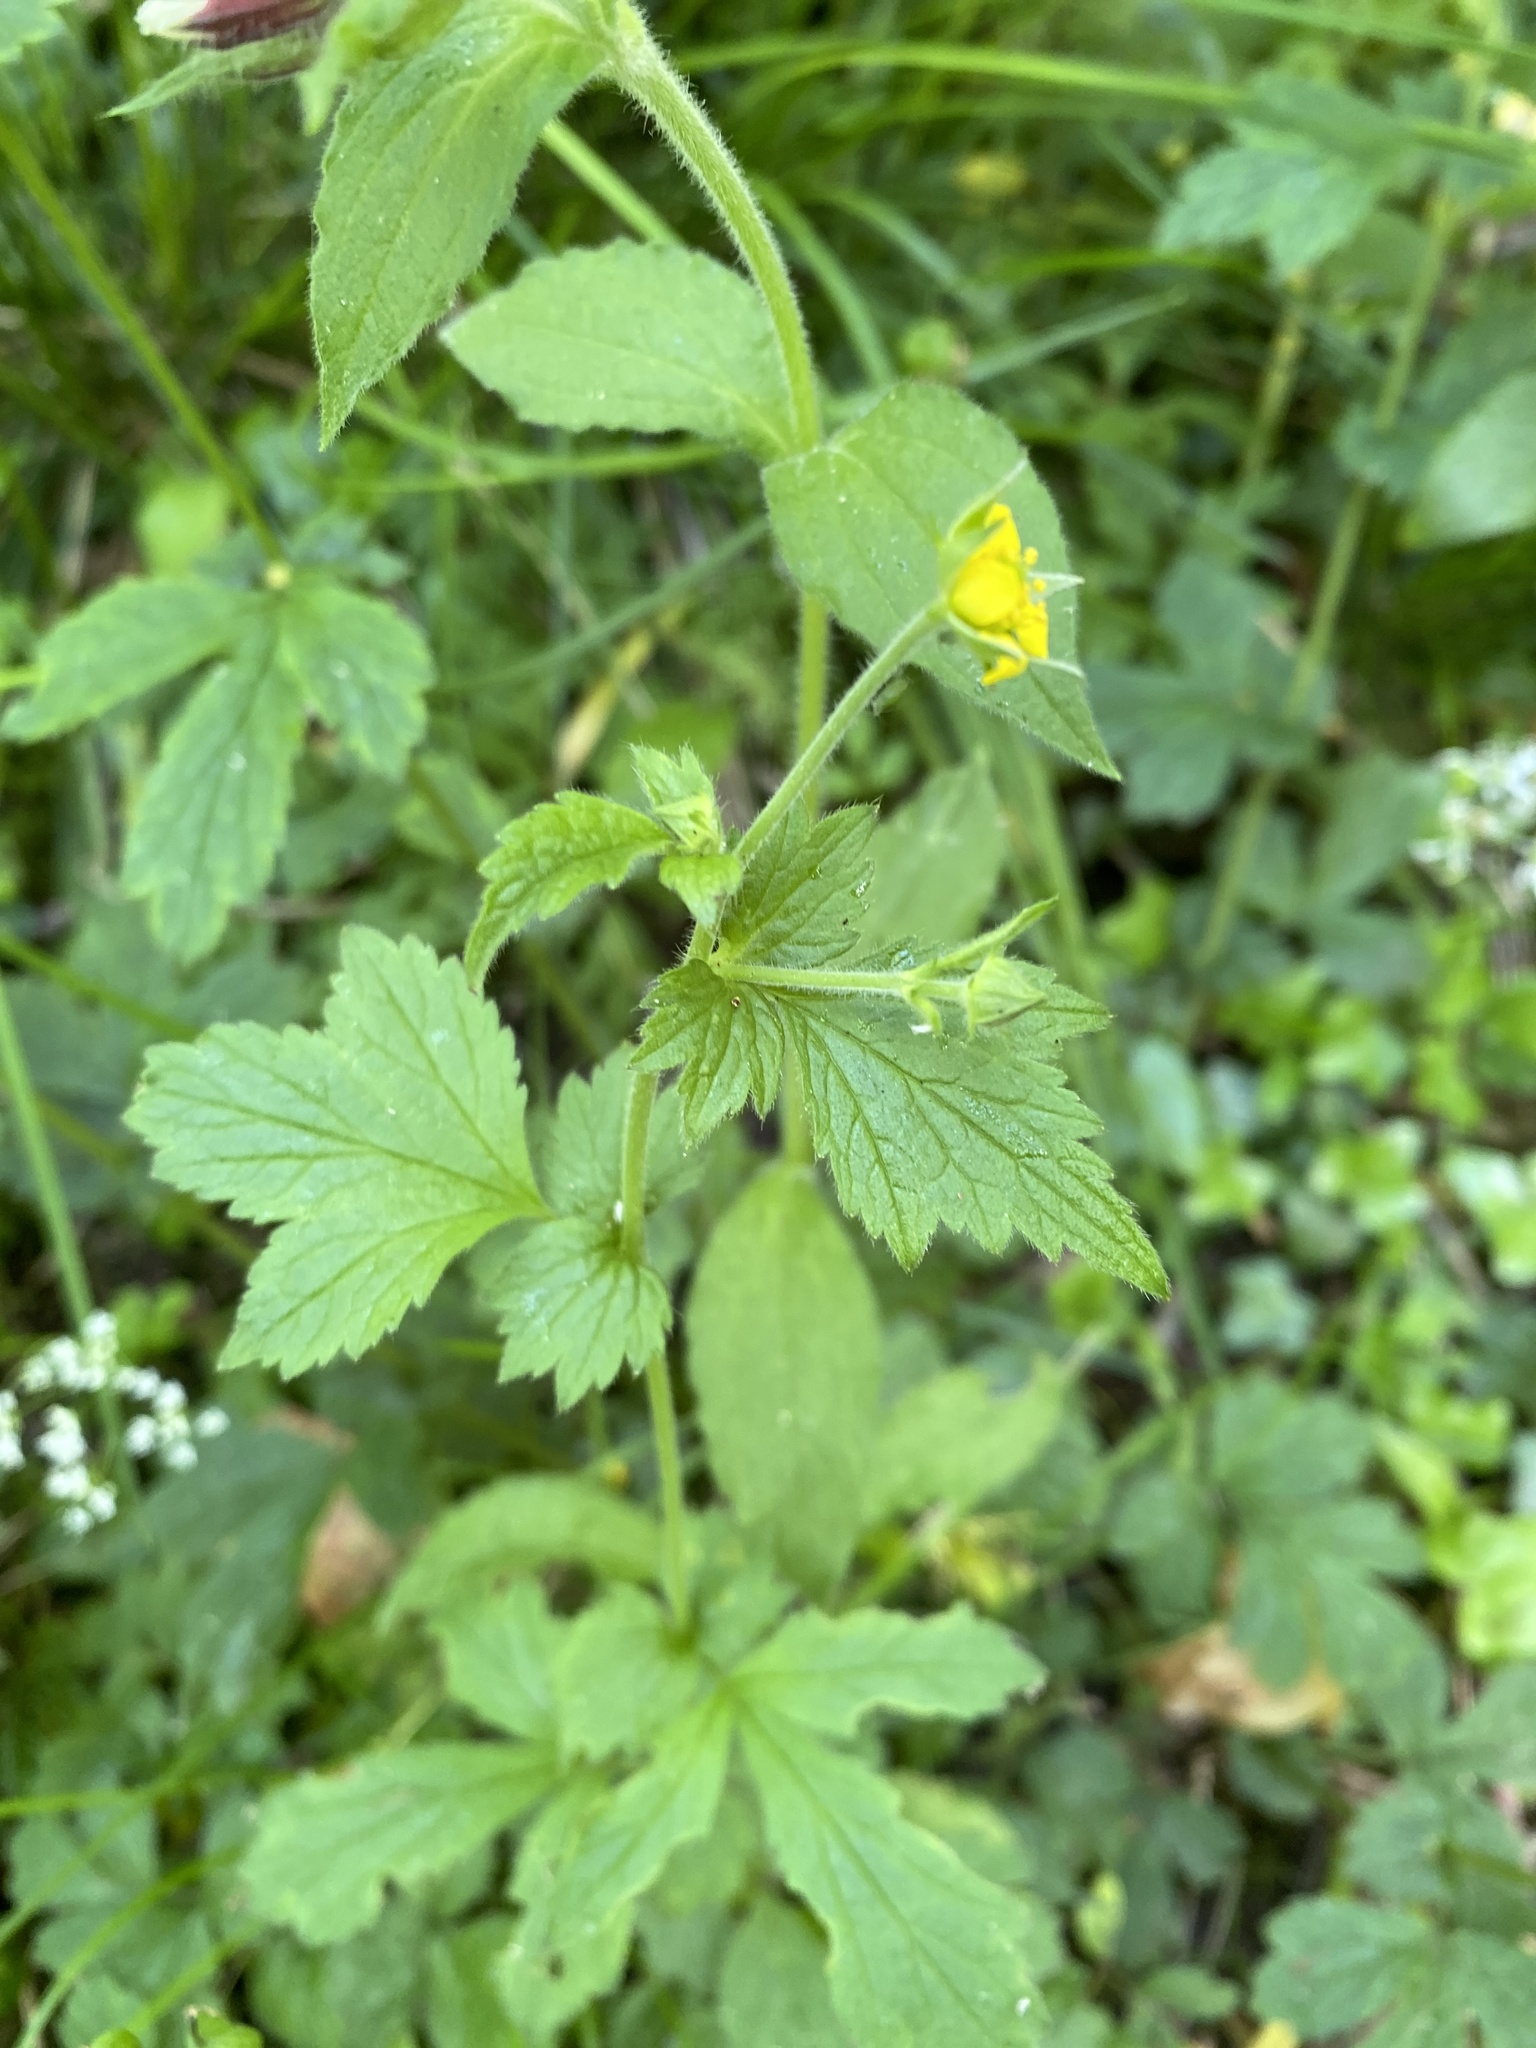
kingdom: Plantae
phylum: Tracheophyta
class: Magnoliopsida
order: Rosales
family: Rosaceae
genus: Geum
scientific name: Geum urbanum
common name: Wood avens
